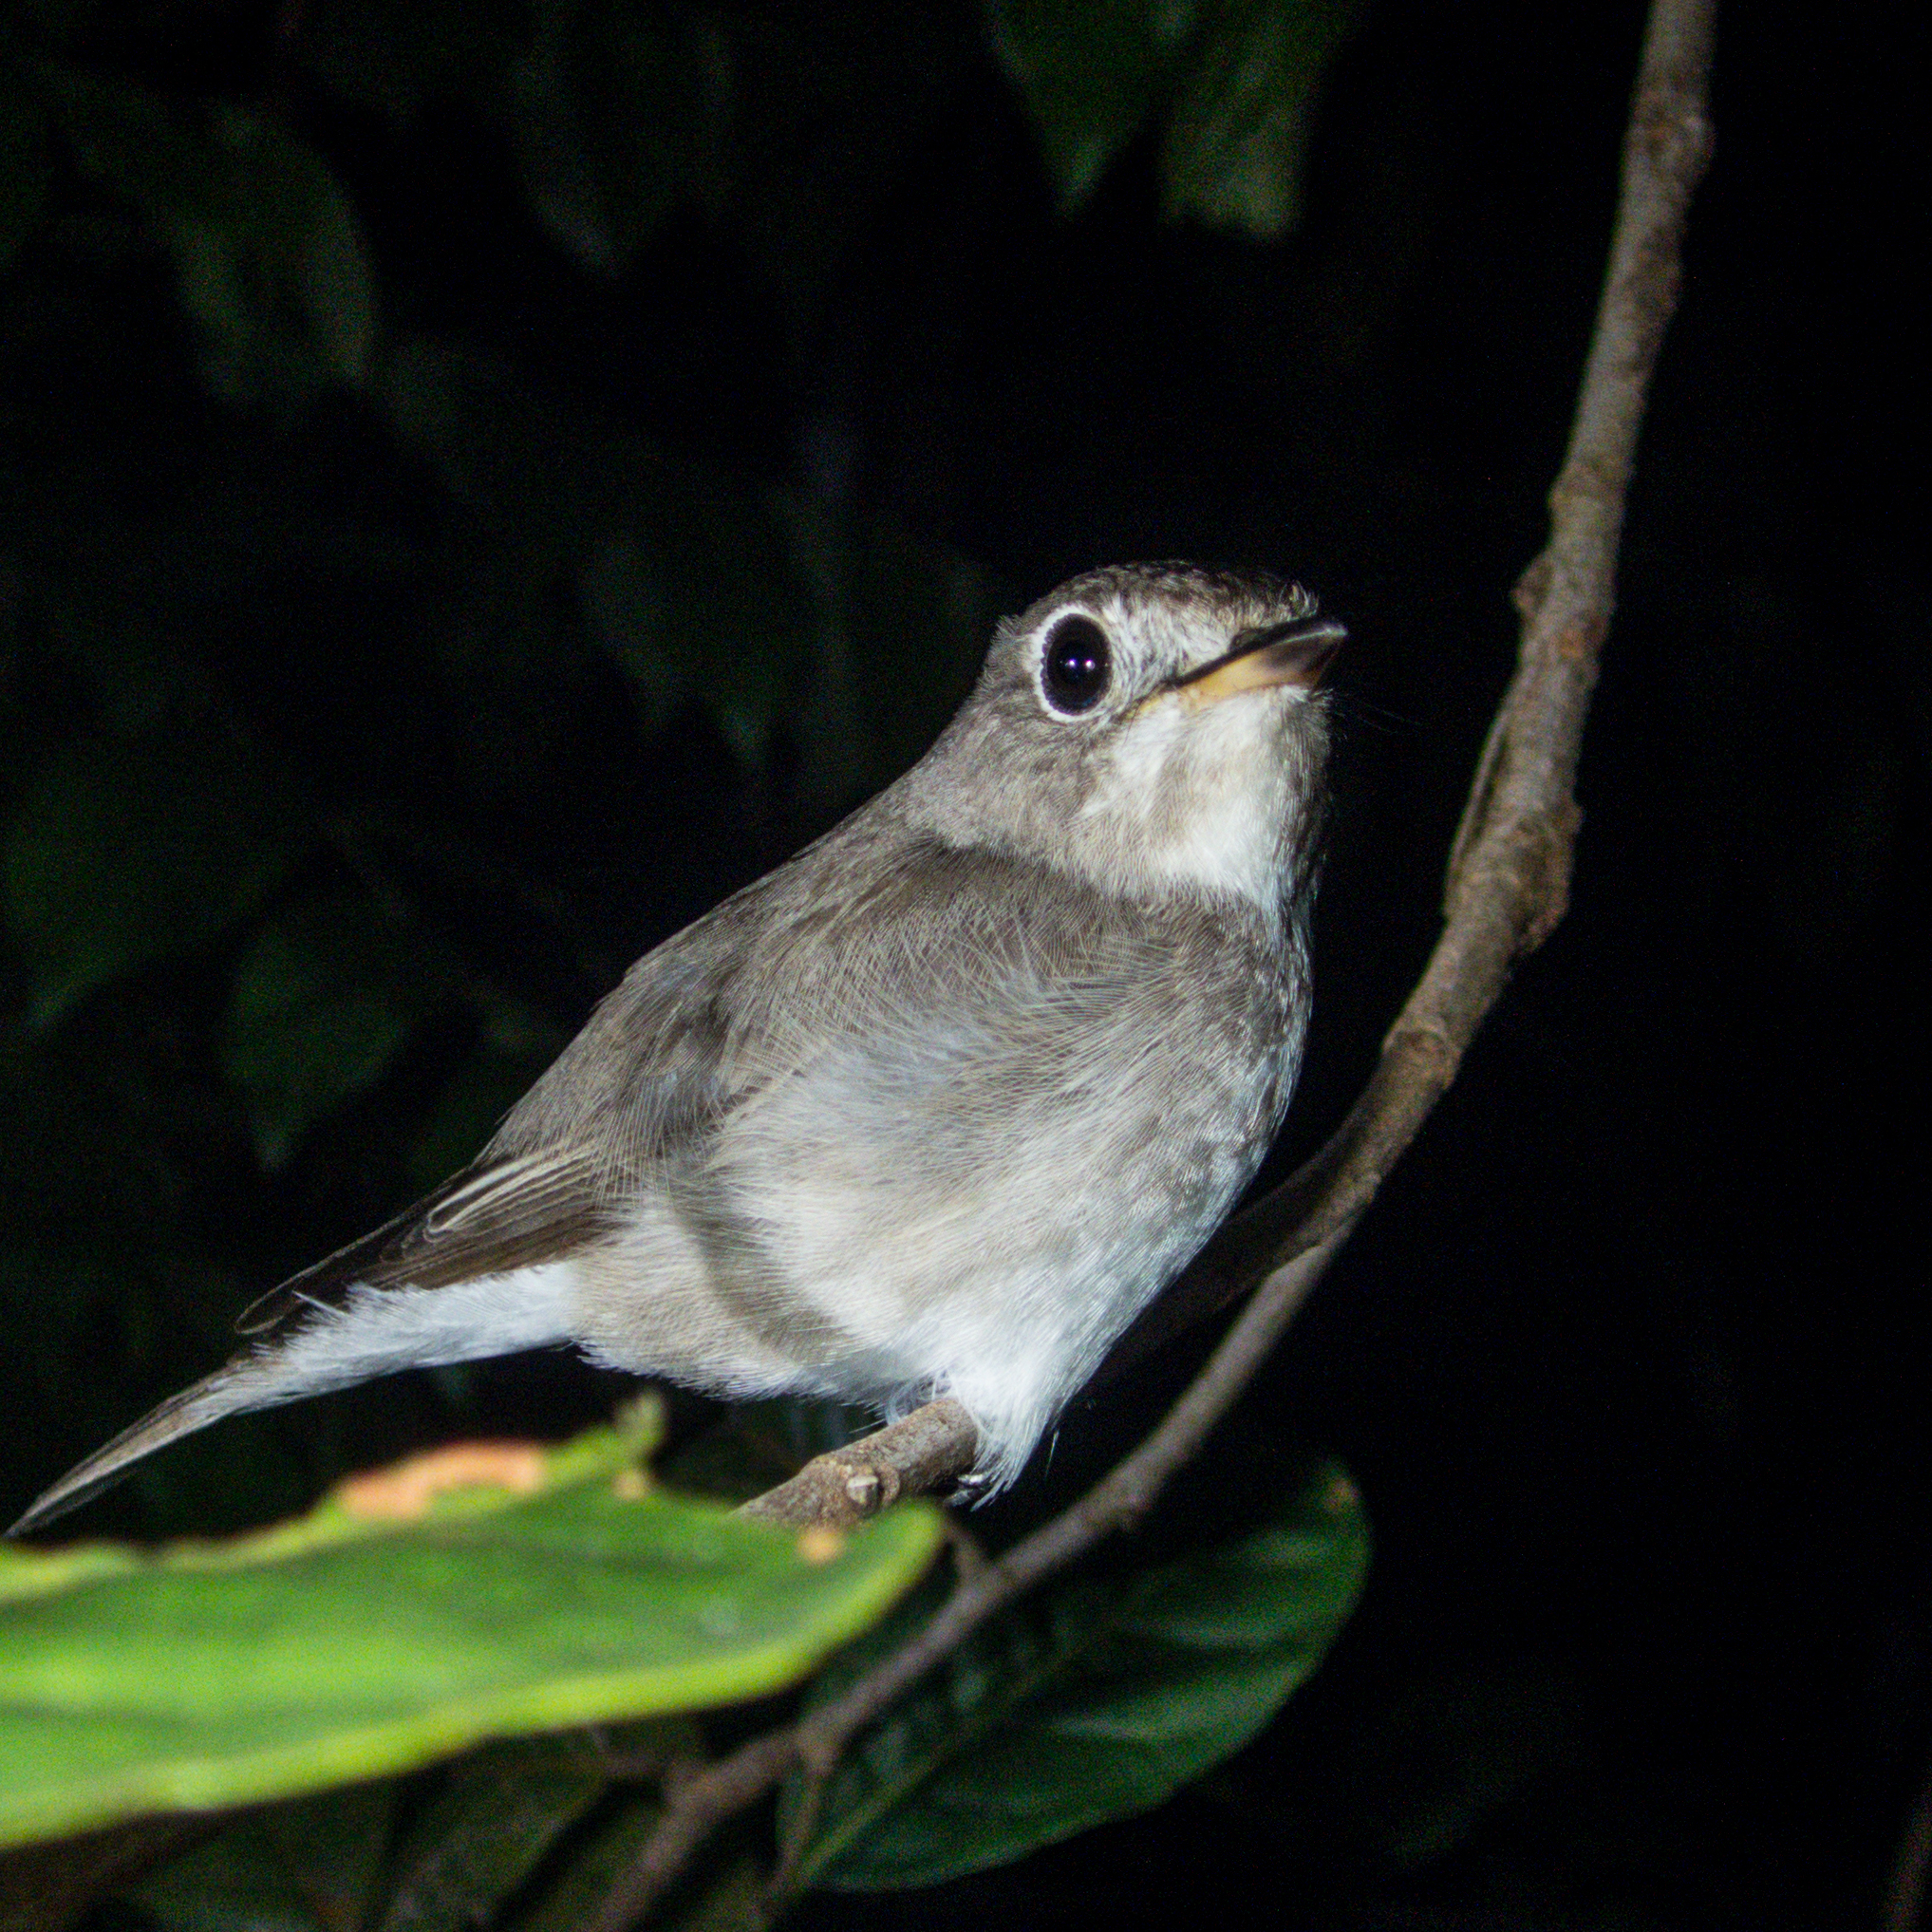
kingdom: Animalia
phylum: Chordata
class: Aves
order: Passeriformes
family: Muscicapidae
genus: Muscicapa
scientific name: Muscicapa latirostris
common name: Asian brown flycatcher
